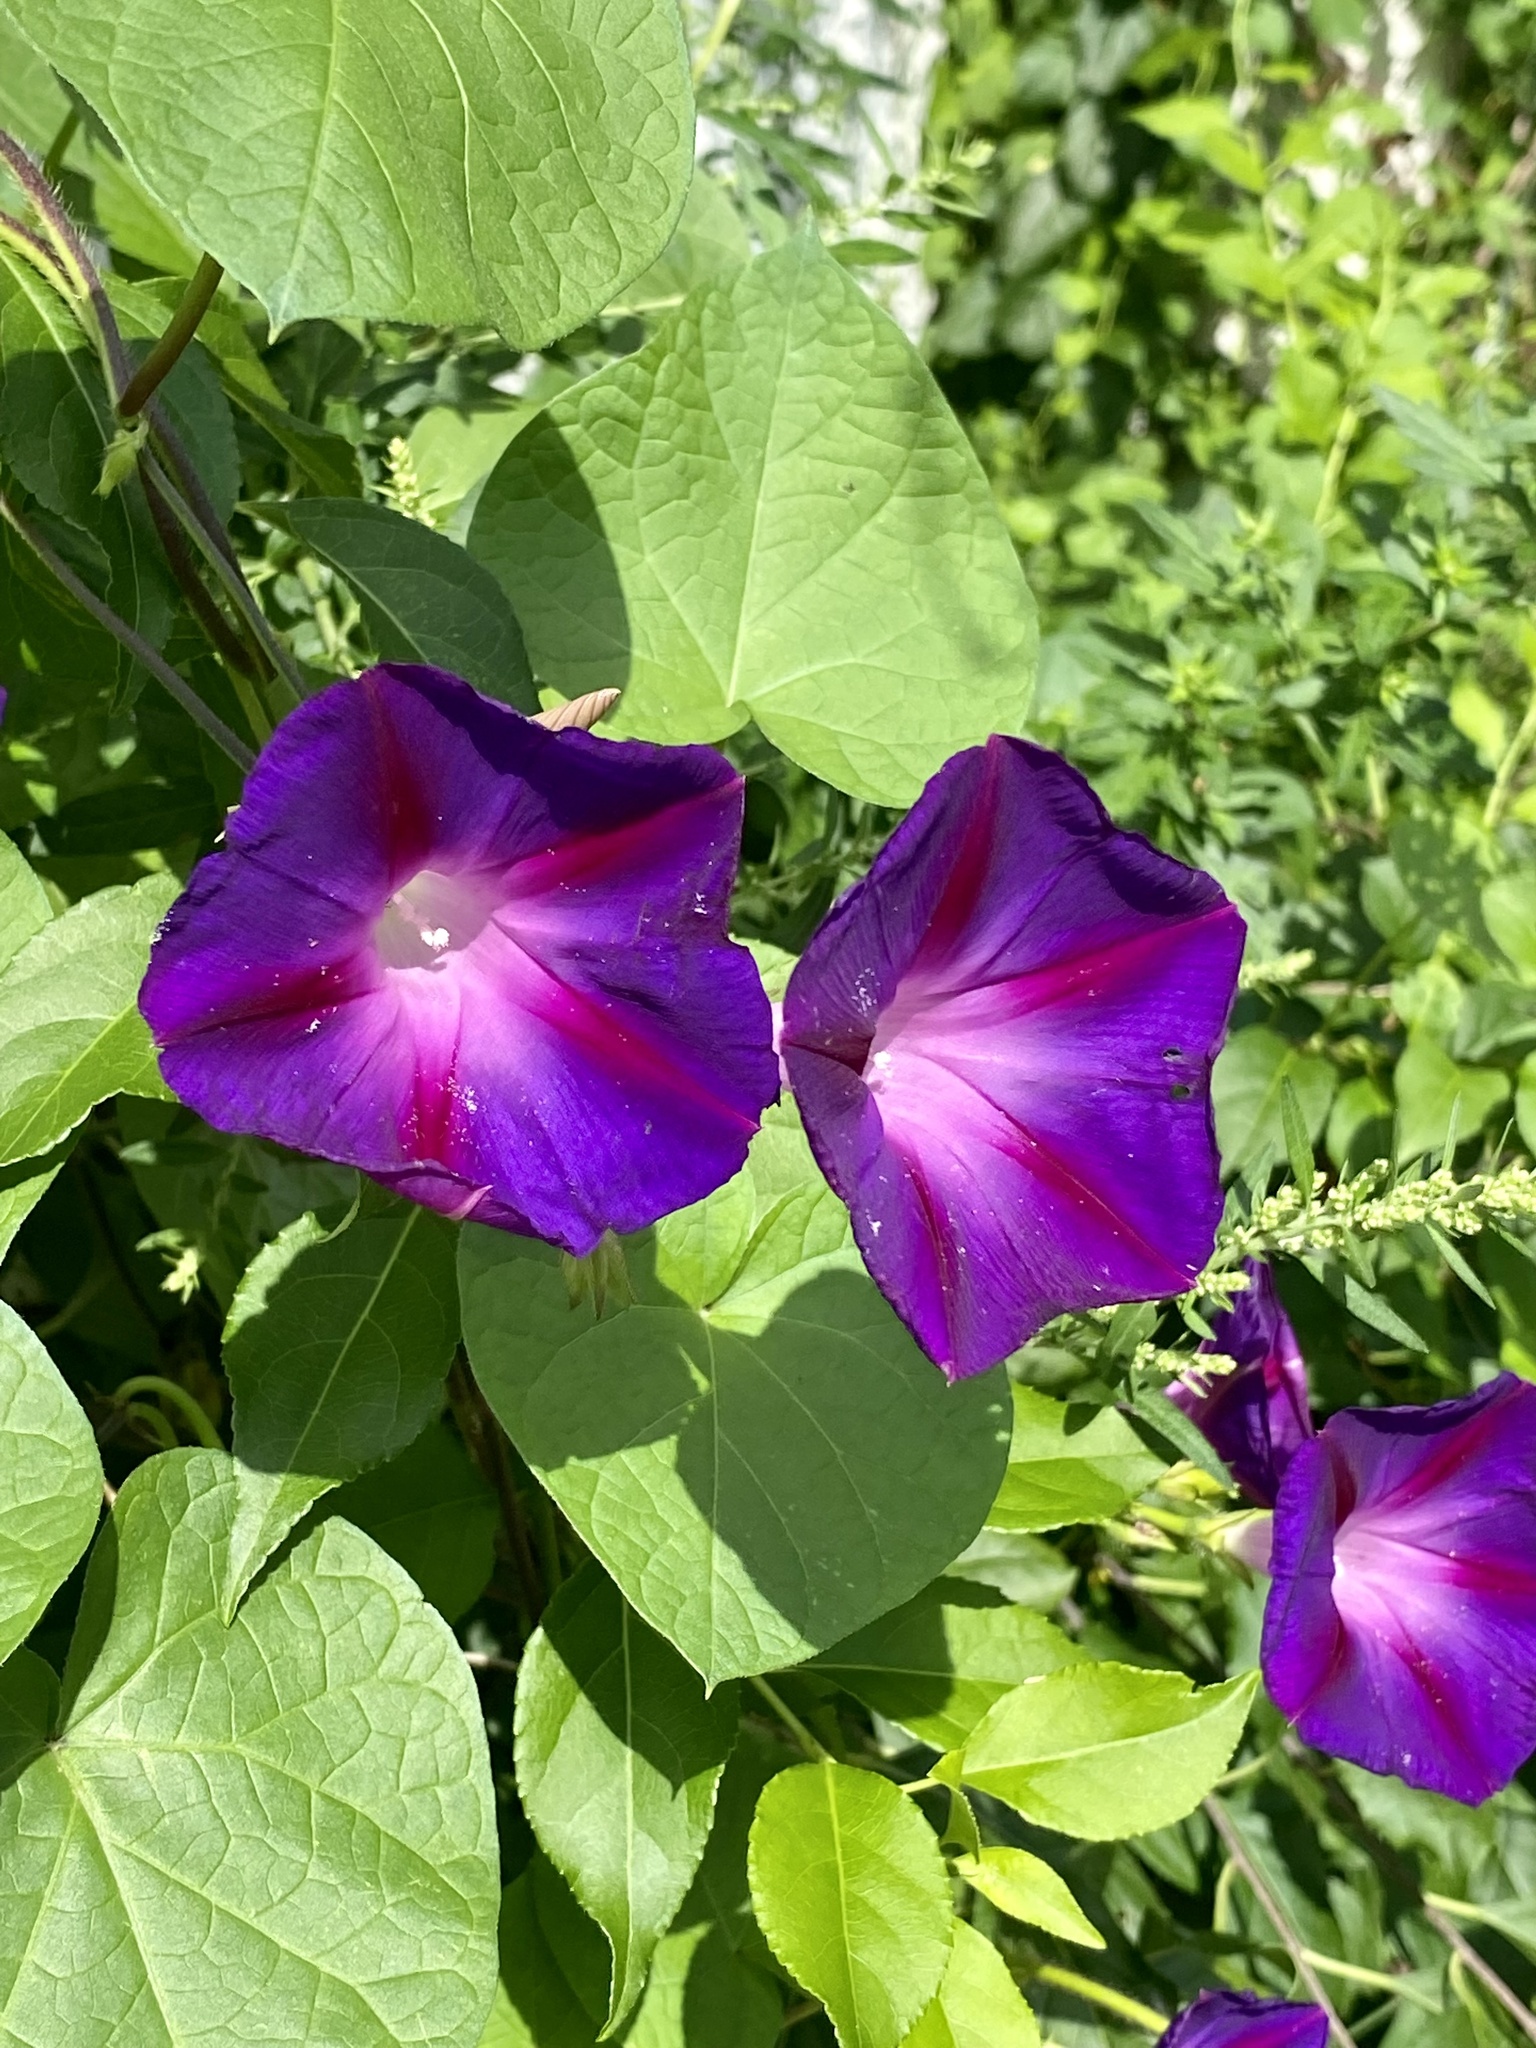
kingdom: Plantae
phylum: Tracheophyta
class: Magnoliopsida
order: Solanales
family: Convolvulaceae
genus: Ipomoea
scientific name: Ipomoea purpurea
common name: Common morning-glory
